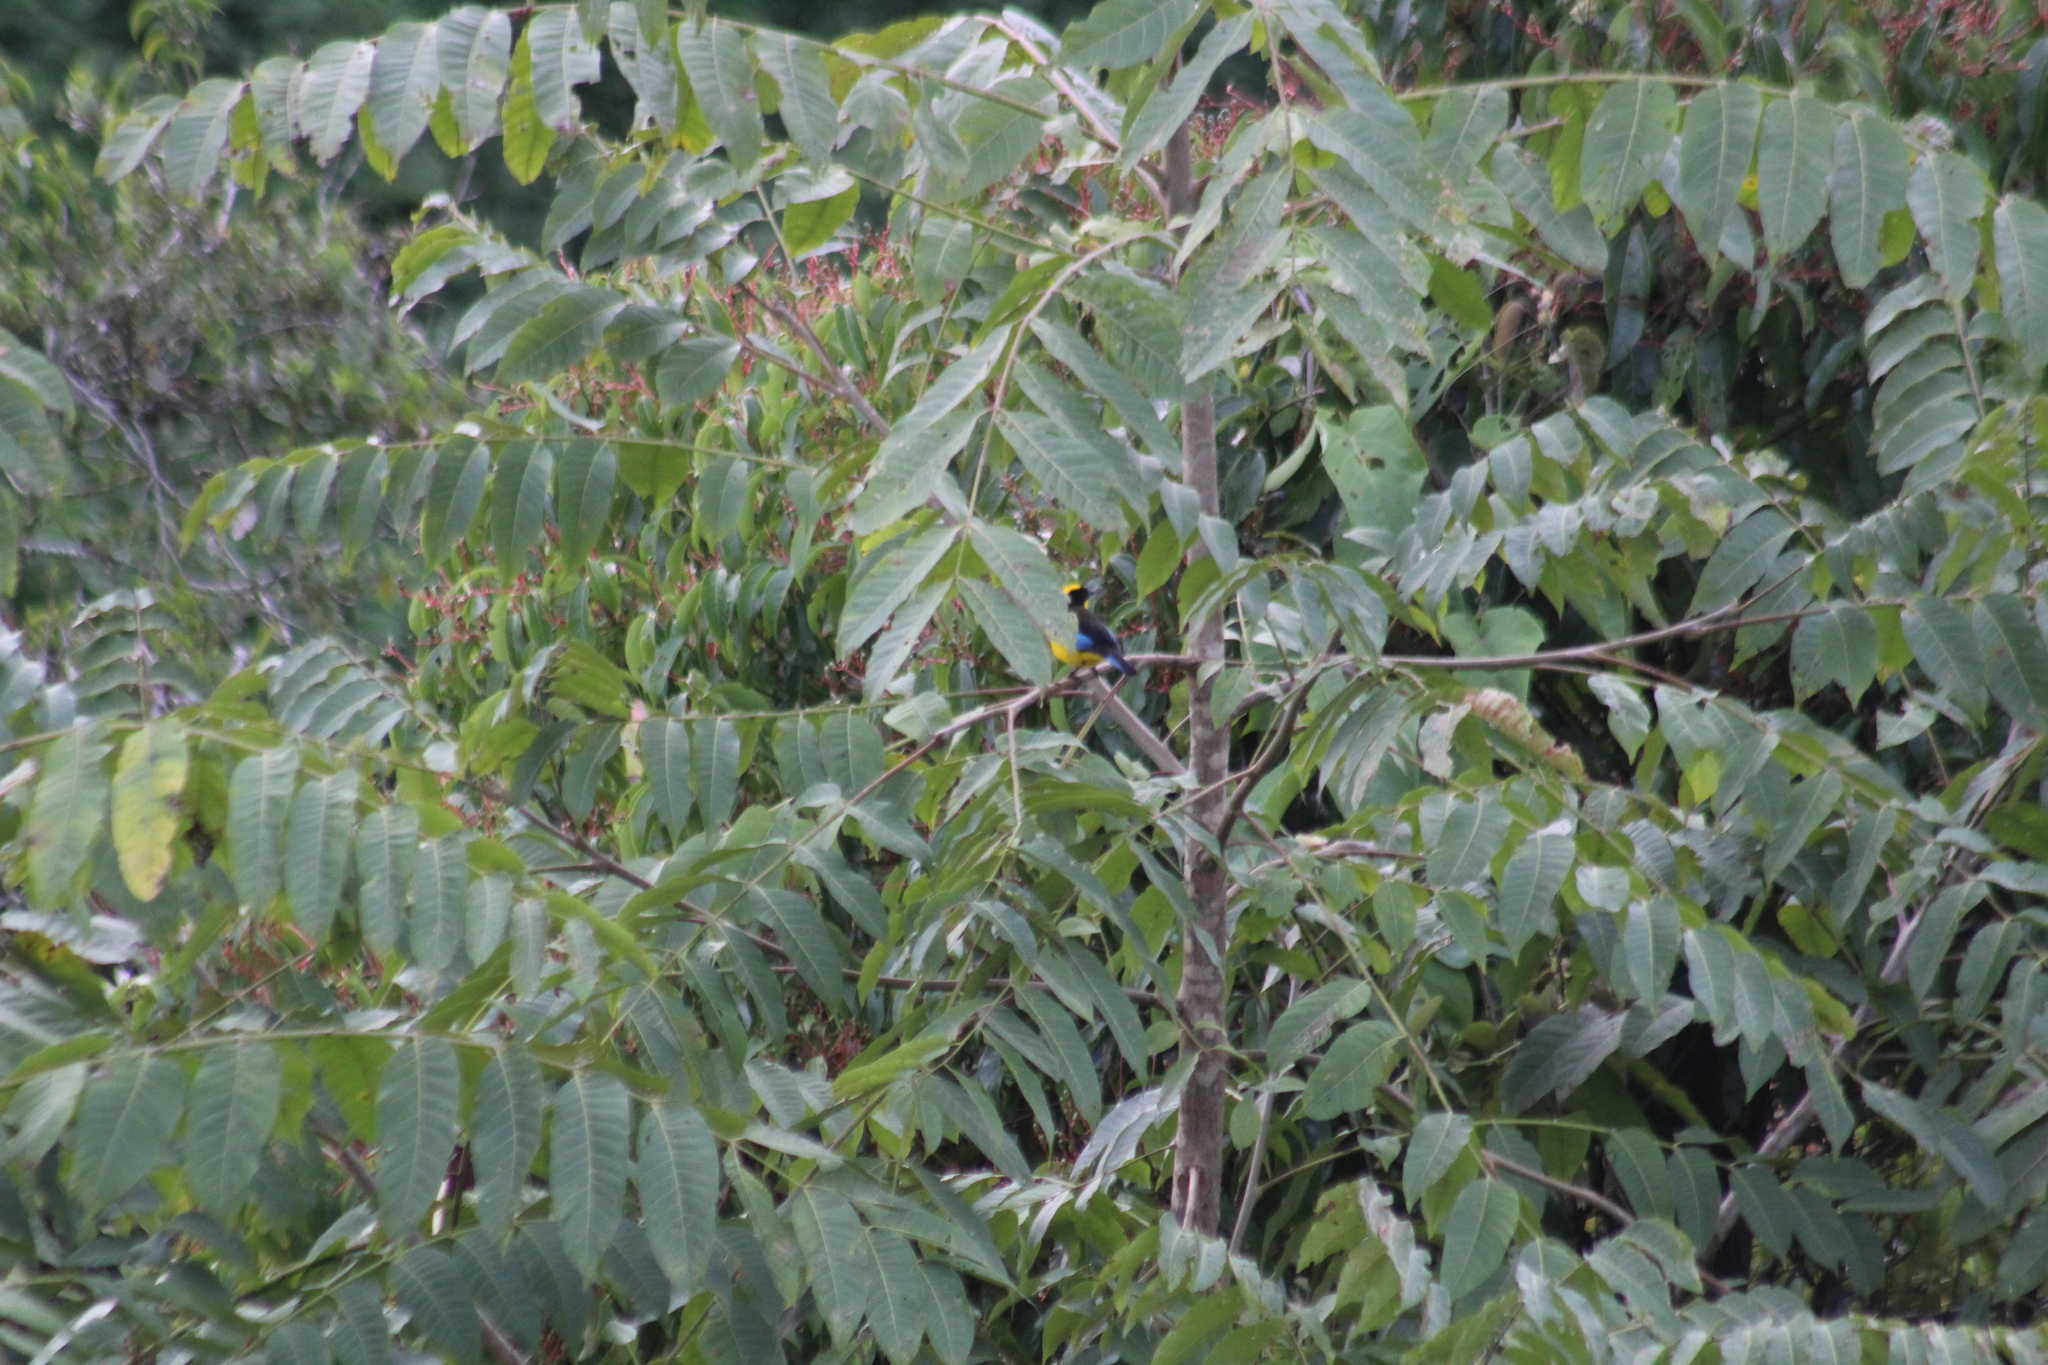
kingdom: Animalia
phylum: Chordata
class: Aves
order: Passeriformes
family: Thraupidae
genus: Anisognathus
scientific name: Anisognathus somptuosus
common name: Blue-winged mountain-tanager
